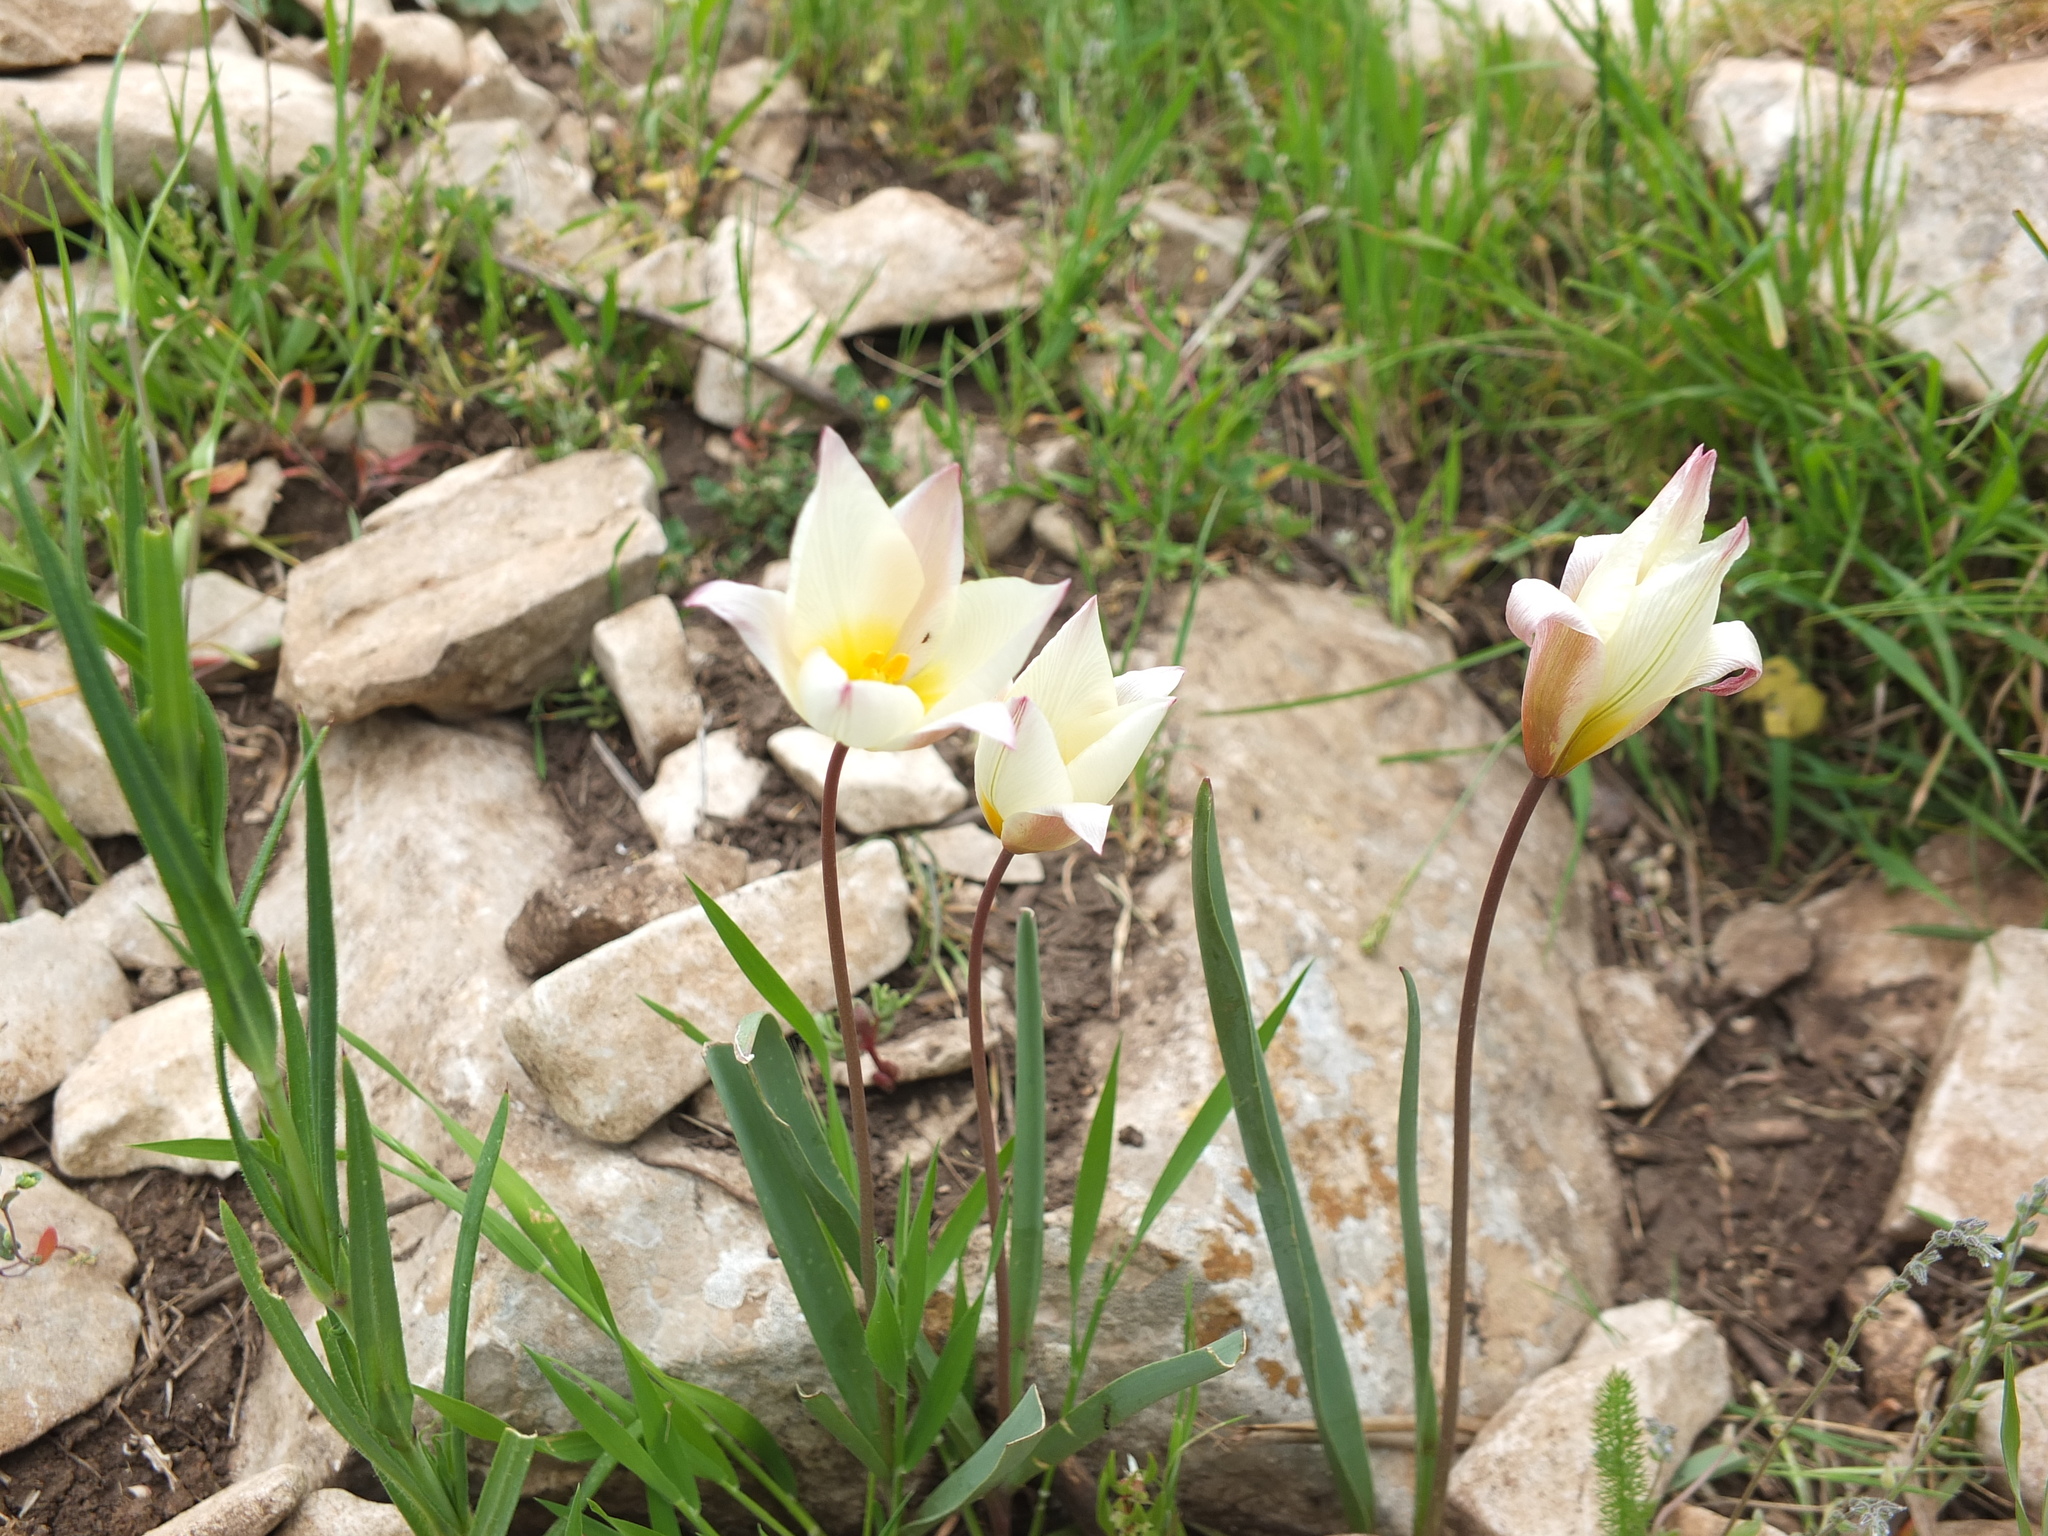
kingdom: Plantae
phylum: Tracheophyta
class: Liliopsida
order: Liliales
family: Liliaceae
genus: Tulipa
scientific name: Tulipa sylvestris
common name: Wild tulip
